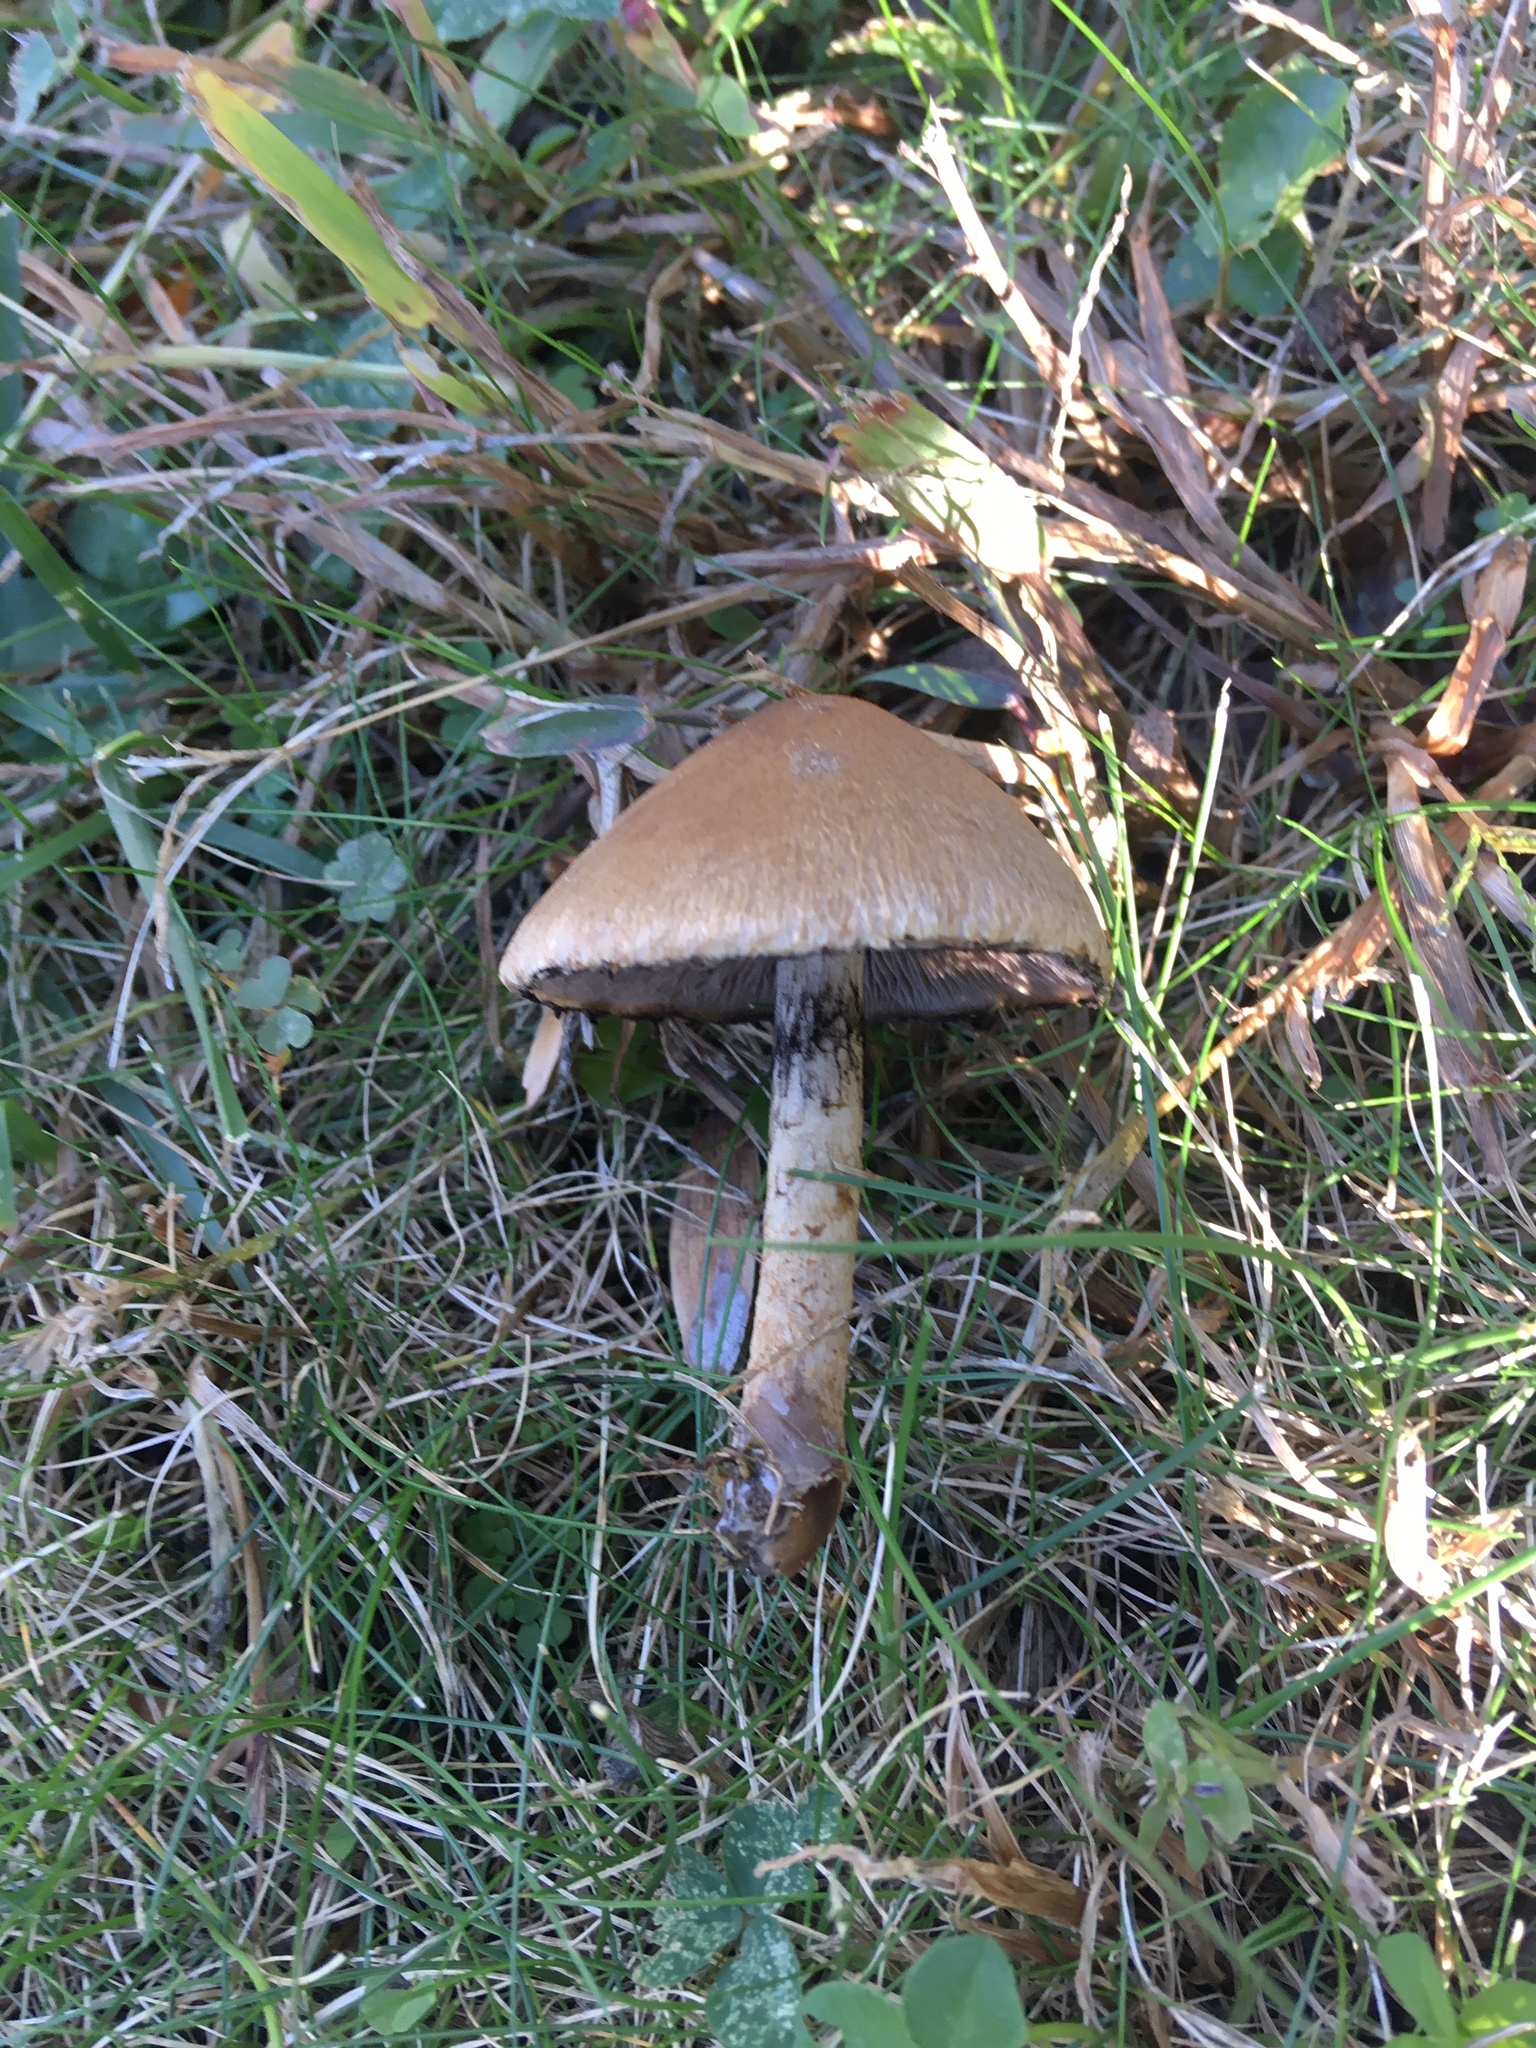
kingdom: Fungi
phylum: Basidiomycota
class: Agaricomycetes
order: Agaricales
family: Psathyrellaceae
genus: Lacrymaria
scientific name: Lacrymaria lacrymabunda
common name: Weeping widow
